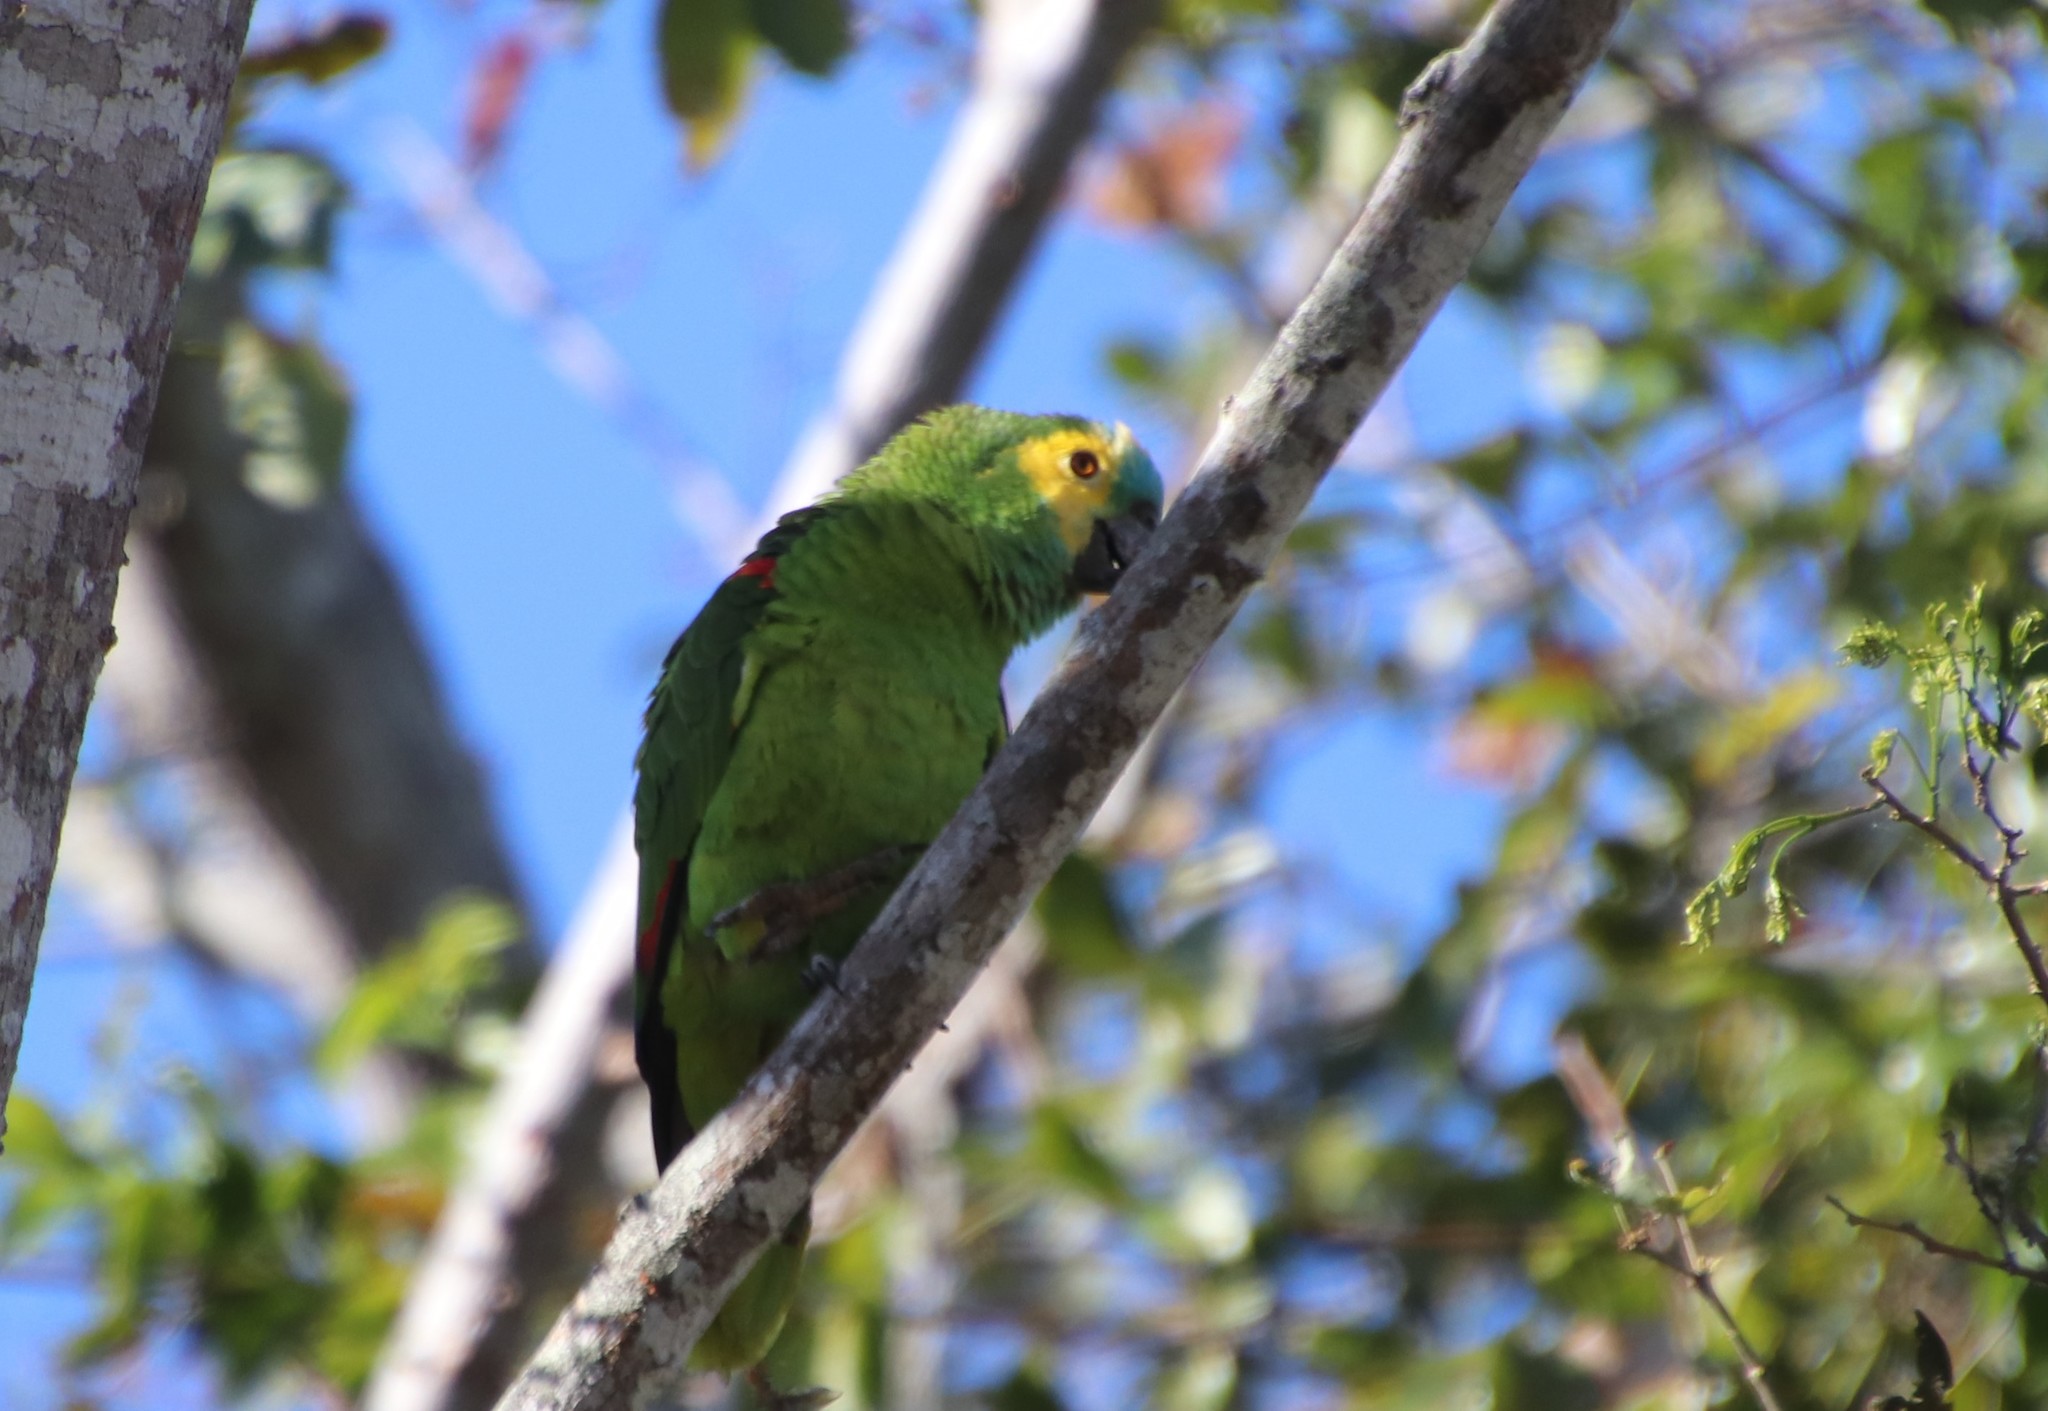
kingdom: Animalia
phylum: Chordata
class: Aves
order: Psittaciformes
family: Psittacidae
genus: Amazona
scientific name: Amazona aestiva
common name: Turquoise-fronted amazon
